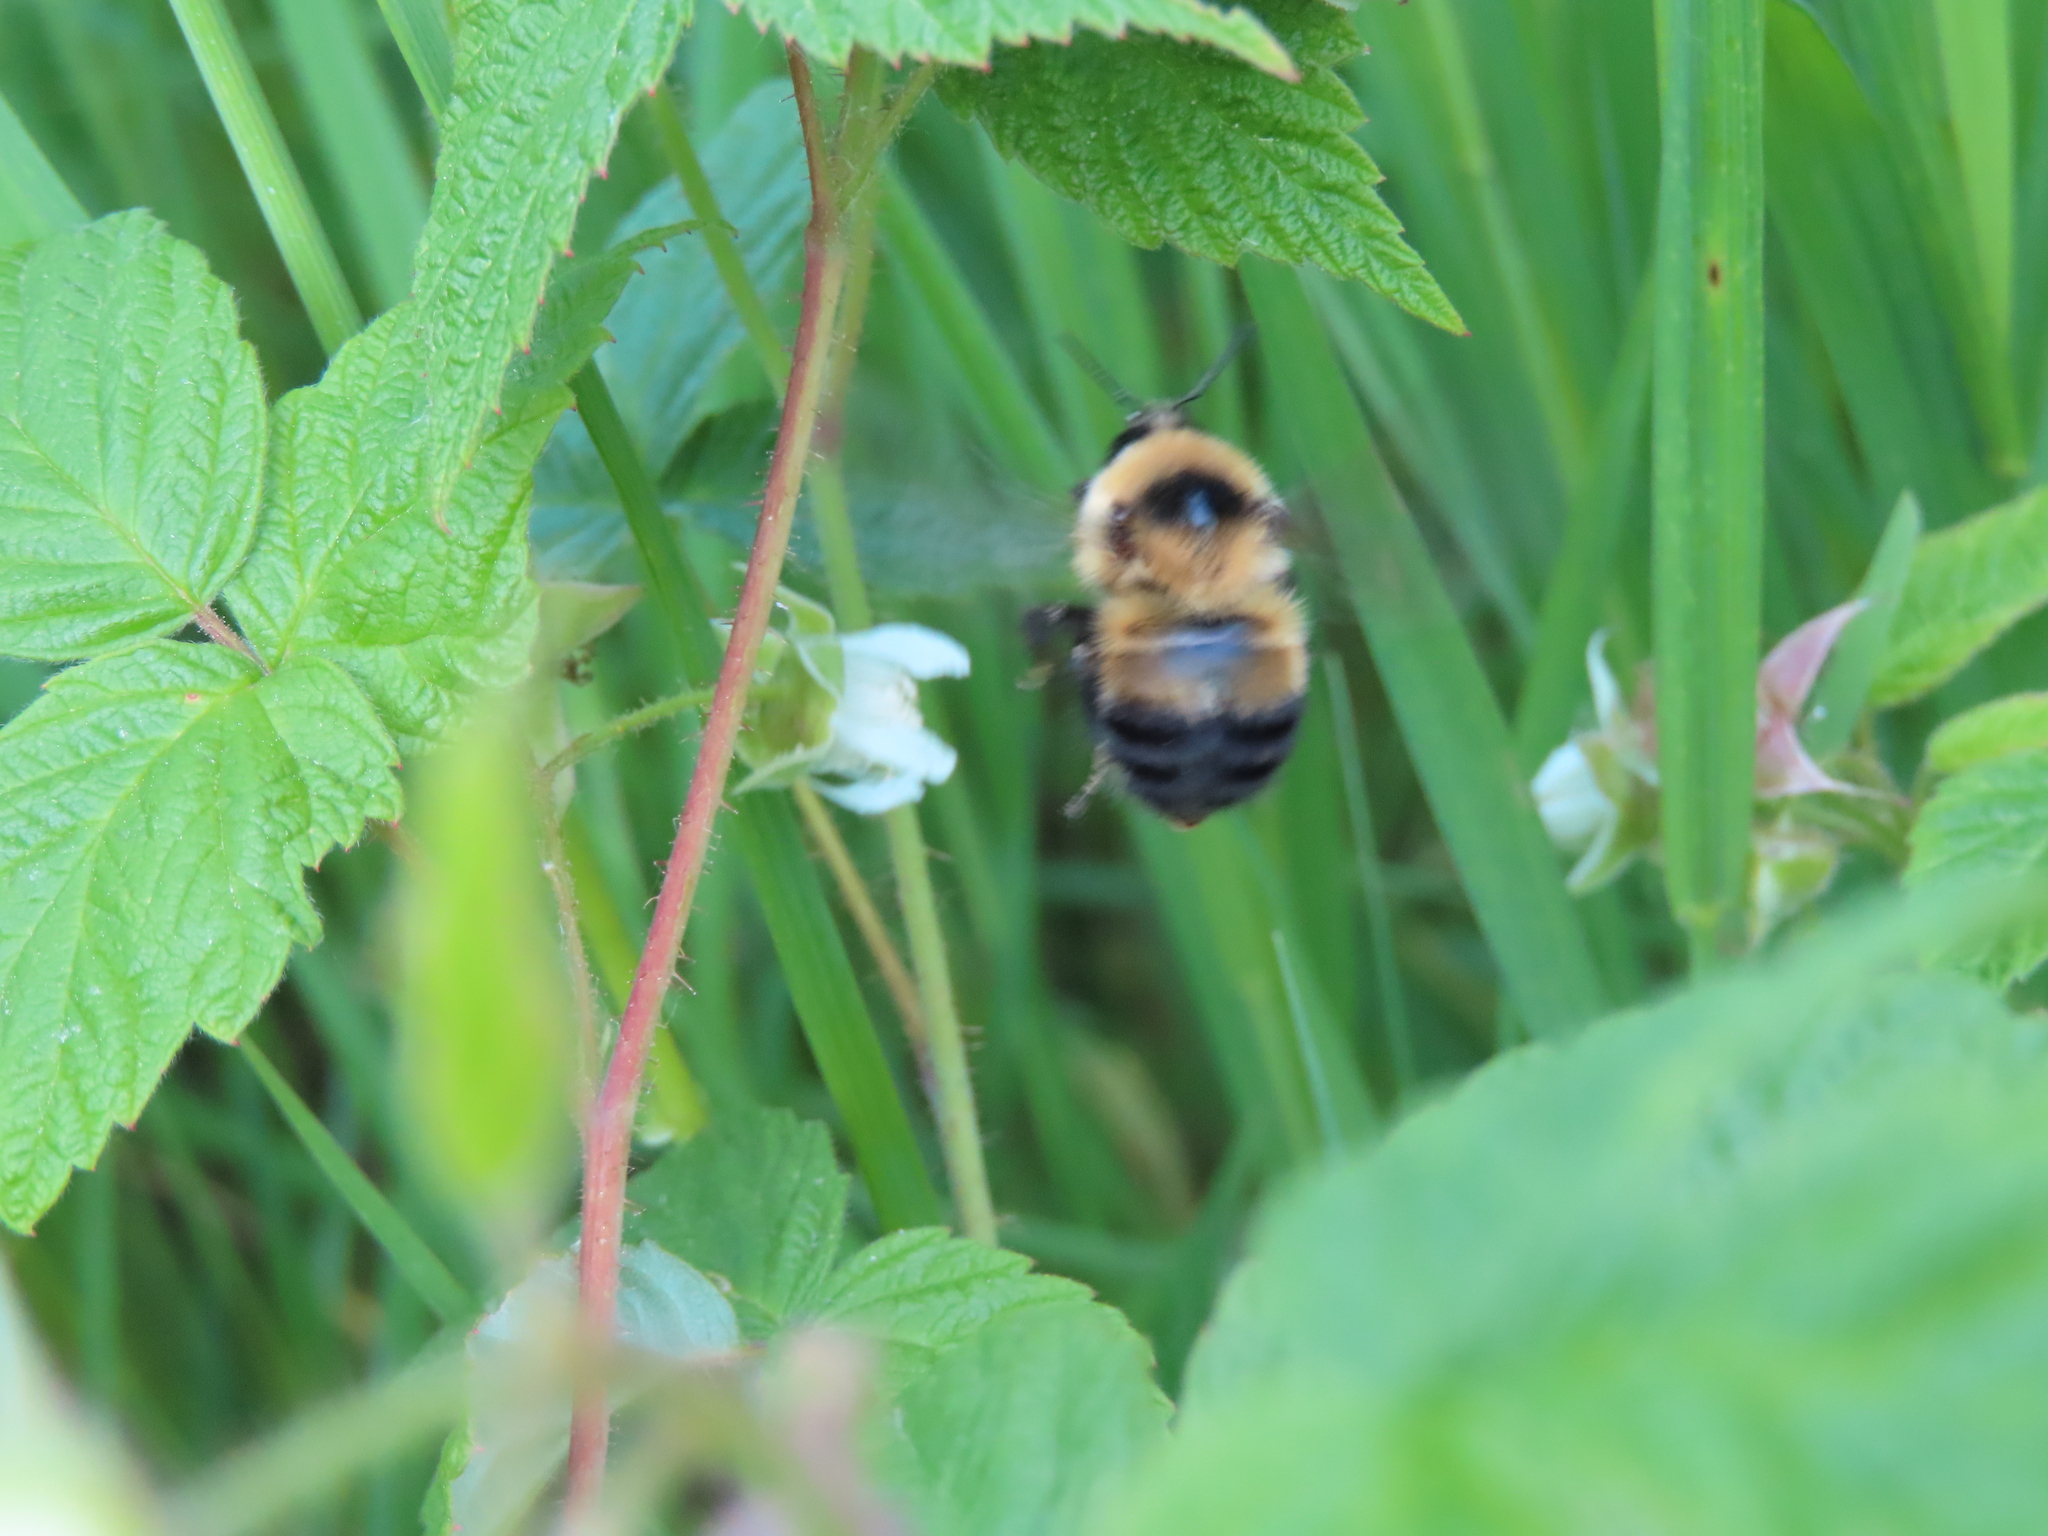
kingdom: Animalia
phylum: Arthropoda
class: Insecta
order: Hymenoptera
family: Apidae
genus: Bombus
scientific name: Bombus rufocinctus
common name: Red-belted bumble bee
